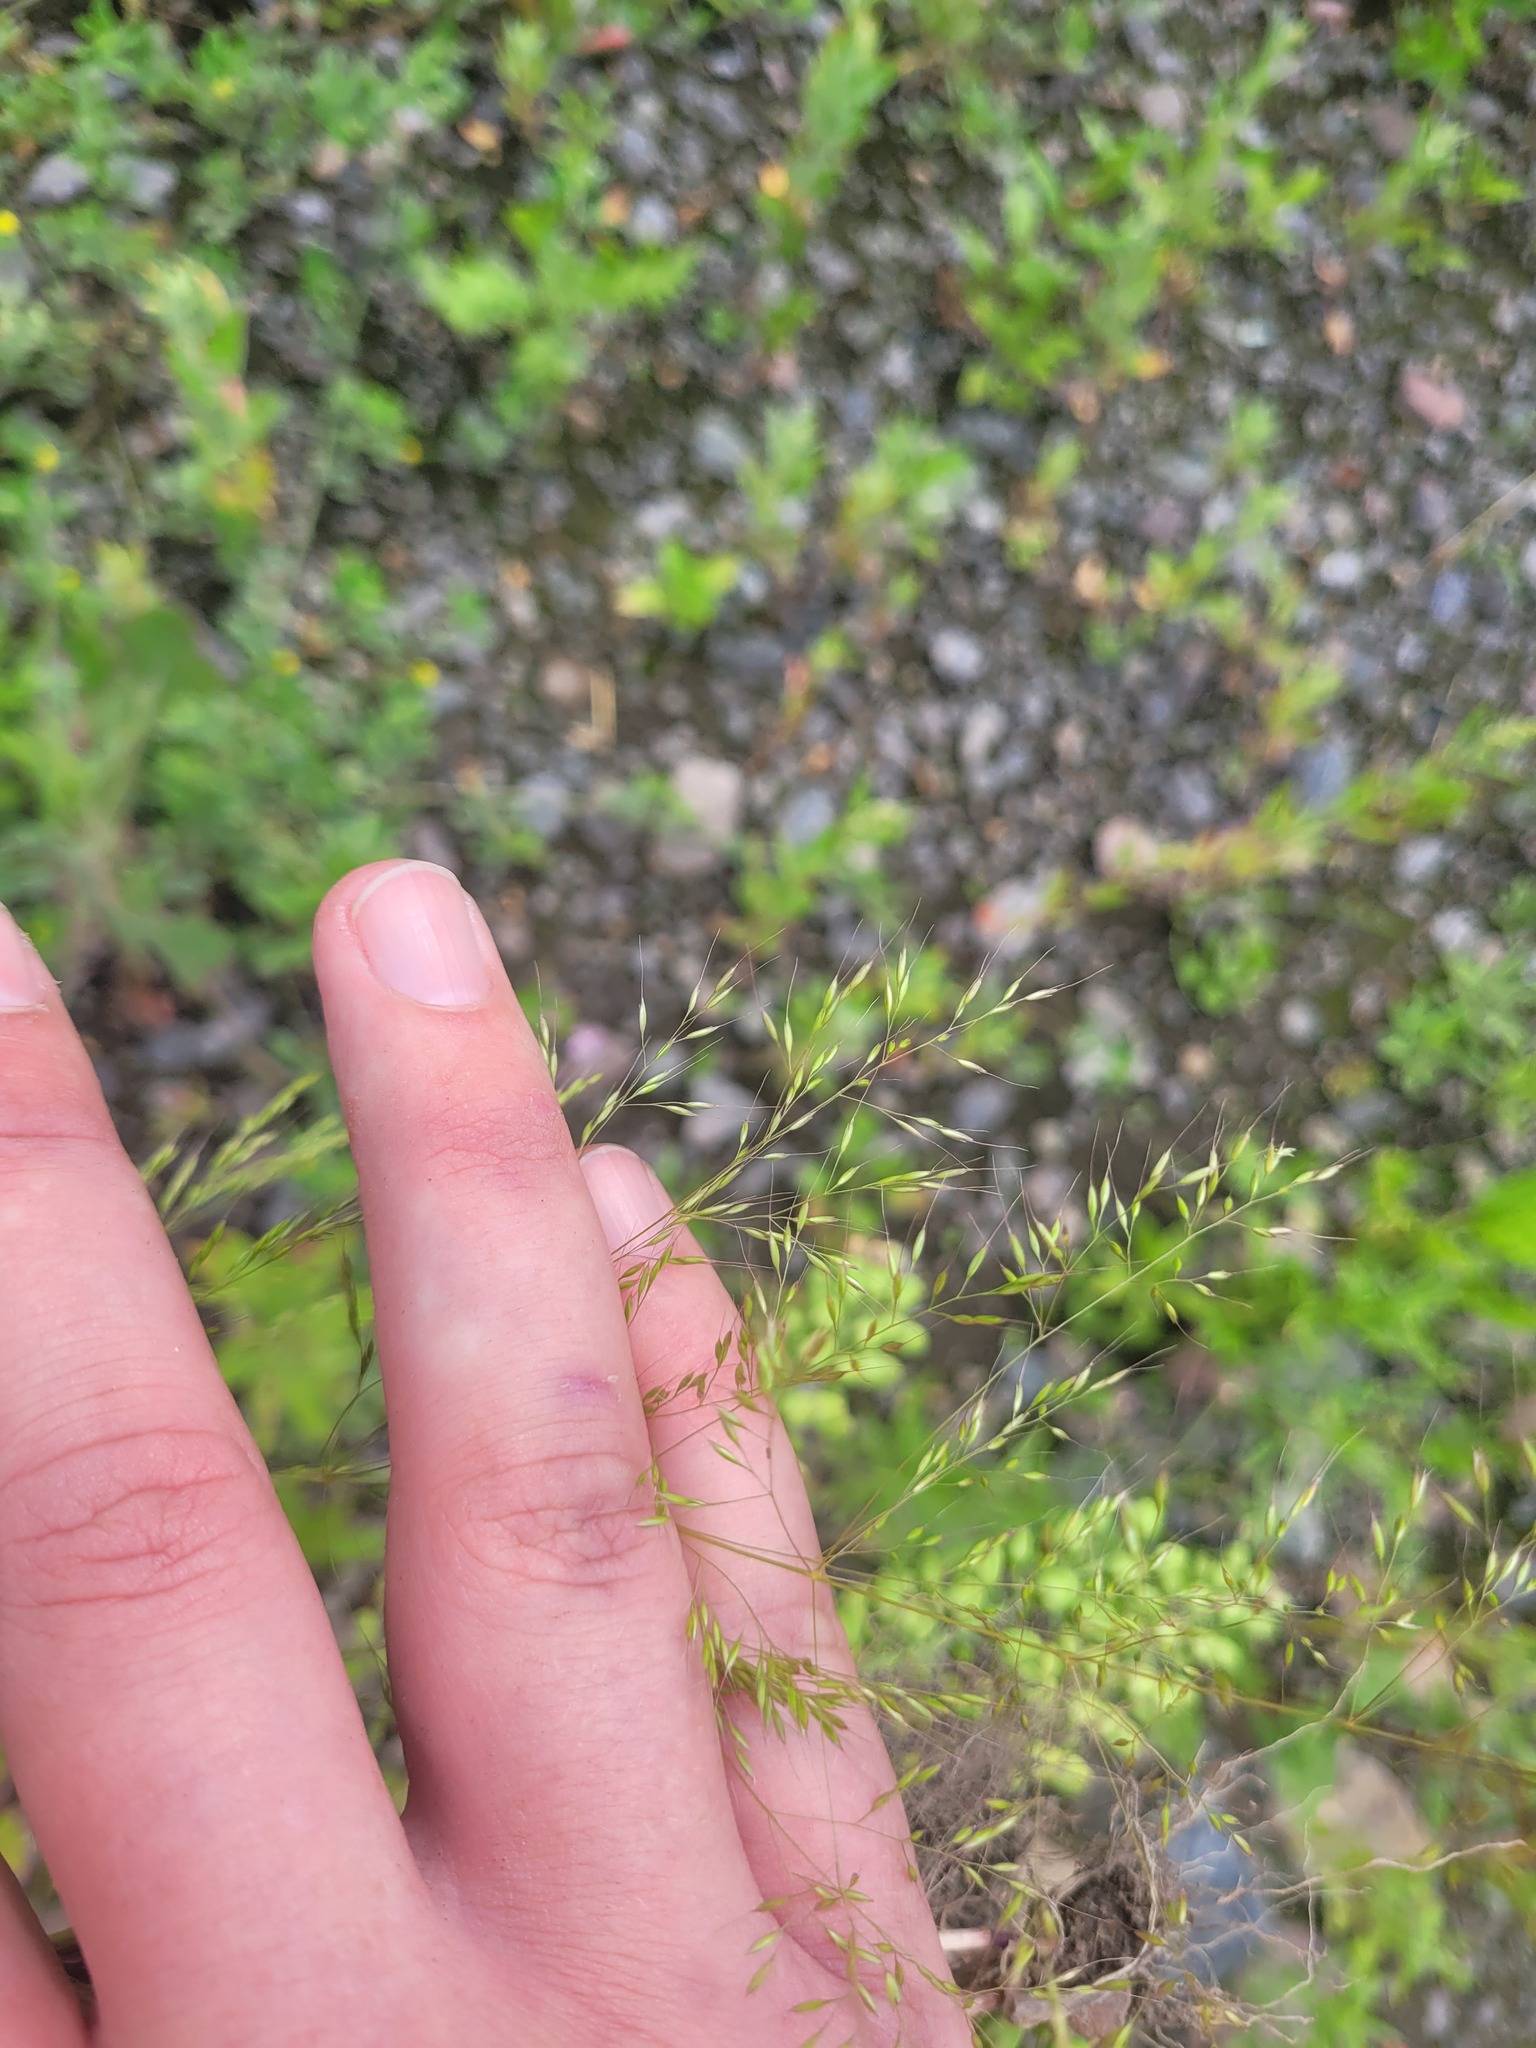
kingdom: Plantae
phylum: Tracheophyta
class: Liliopsida
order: Poales
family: Poaceae
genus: Apera
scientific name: Apera spica-venti
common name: Loose silky-bent
